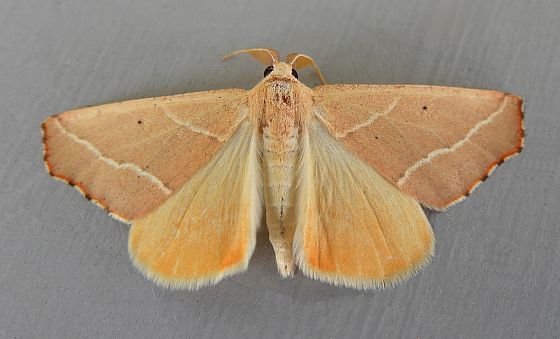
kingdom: Animalia
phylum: Arthropoda
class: Insecta
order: Lepidoptera
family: Geometridae
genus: Sicya
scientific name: Sicya morsicaria
